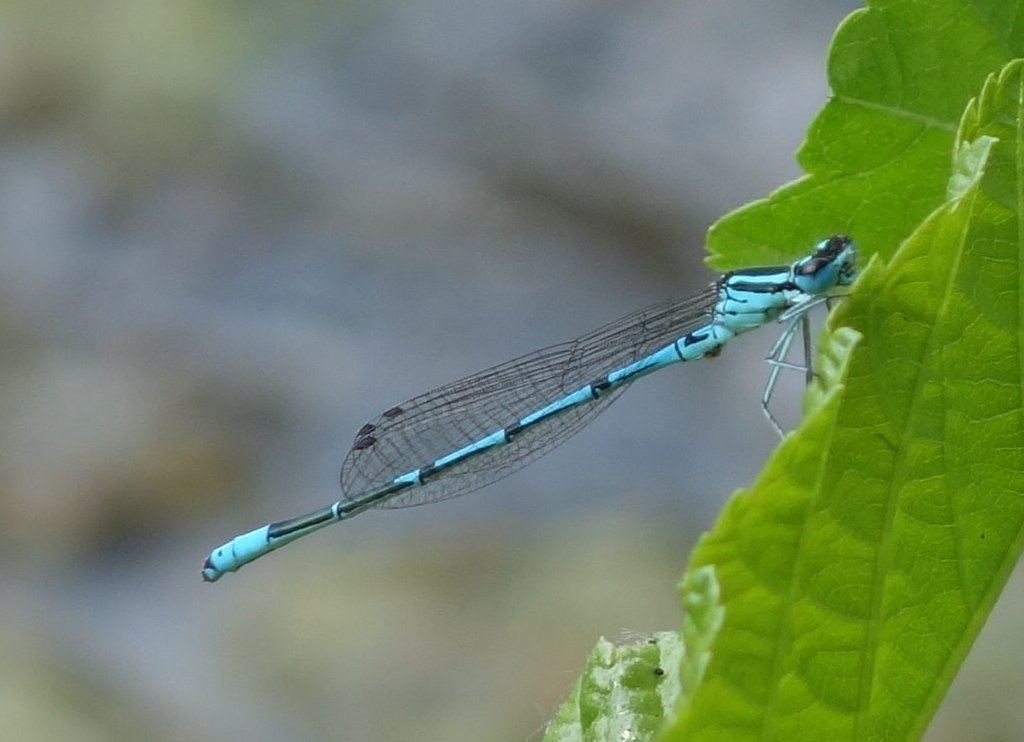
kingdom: Animalia
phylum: Arthropoda
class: Insecta
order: Odonata
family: Coenagrionidae
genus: Coenagrion
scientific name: Coenagrion puella
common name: Azure damselfly
